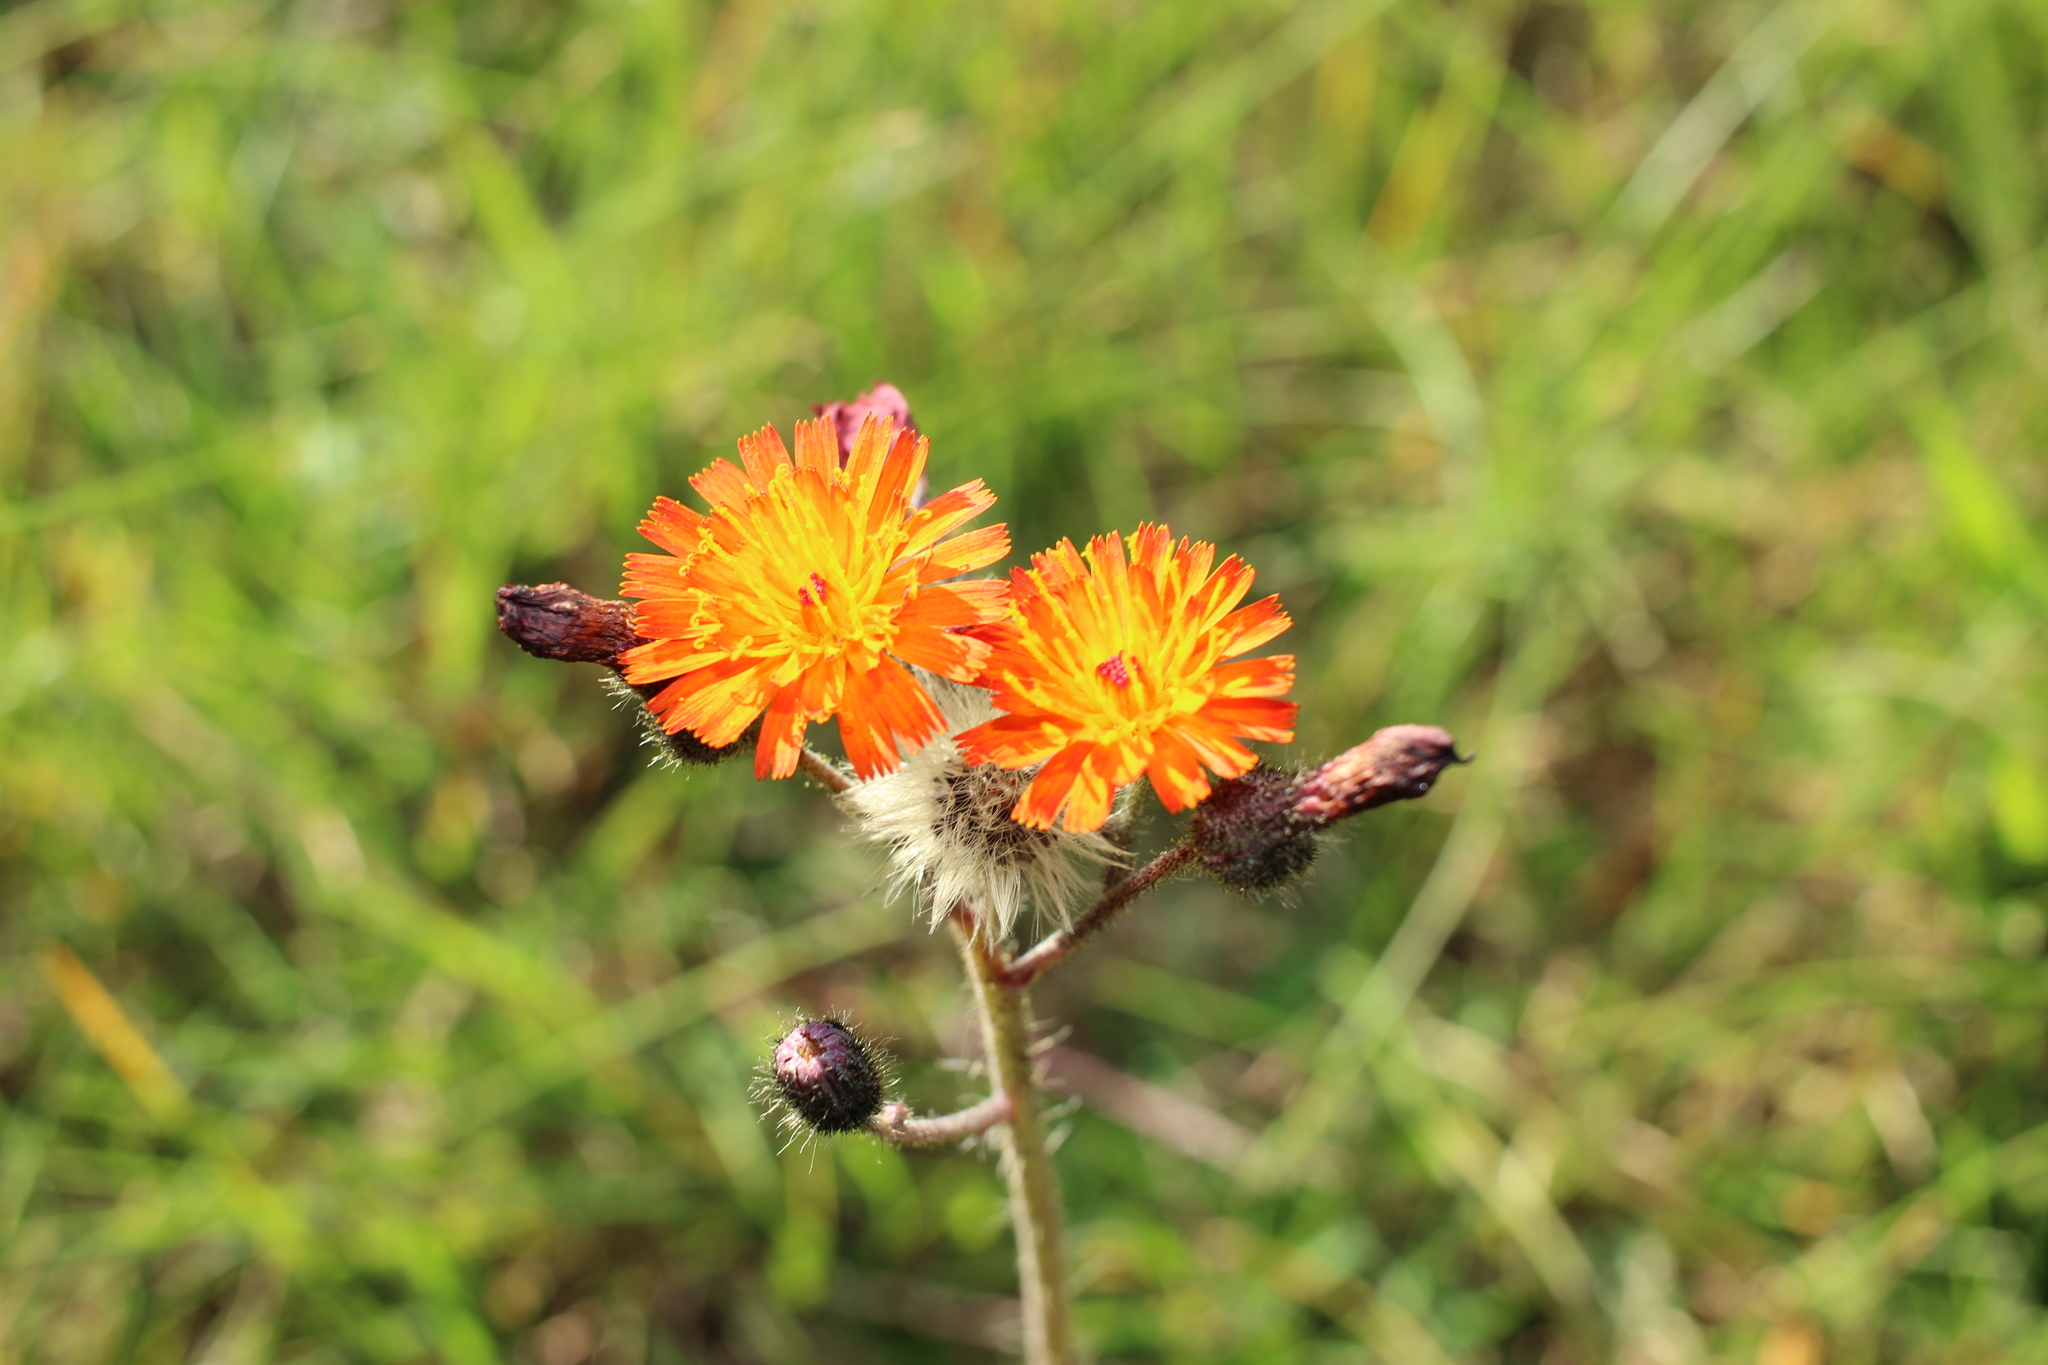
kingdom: Plantae
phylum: Tracheophyta
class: Magnoliopsida
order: Asterales
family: Asteraceae
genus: Pilosella
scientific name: Pilosella aurantiaca
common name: Fox-and-cubs
